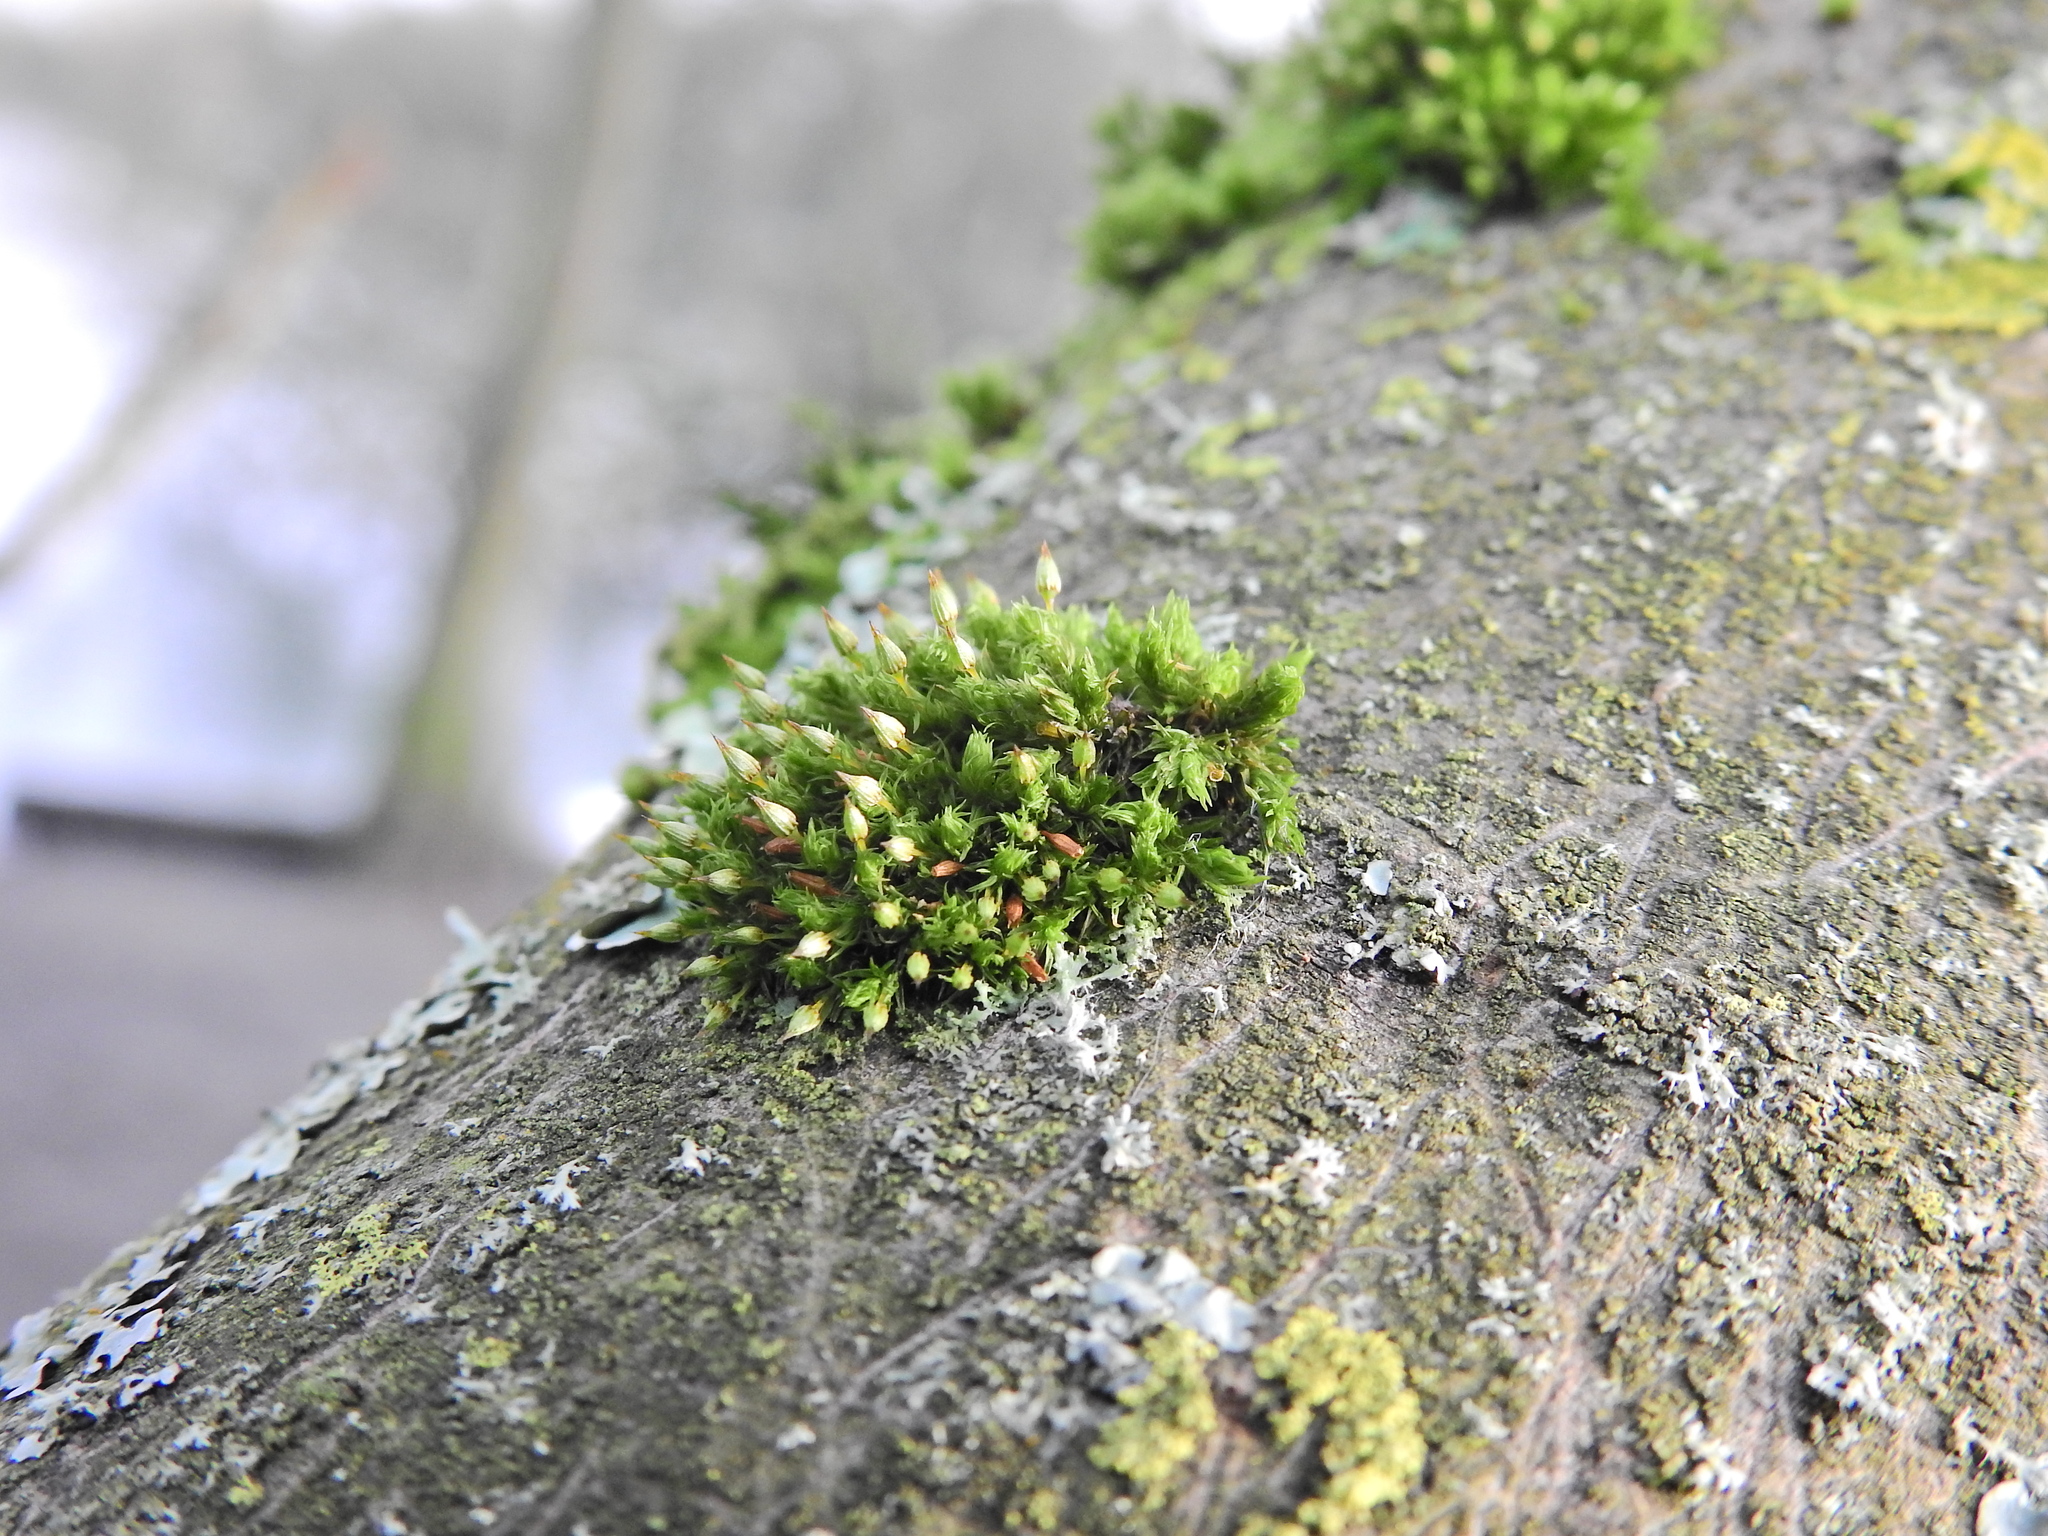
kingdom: Plantae
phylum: Bryophyta
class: Bryopsida
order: Orthotrichales
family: Orthotrichaceae
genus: Orthotrichum
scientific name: Orthotrichum pulchellum
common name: Elegant bristle-moss
